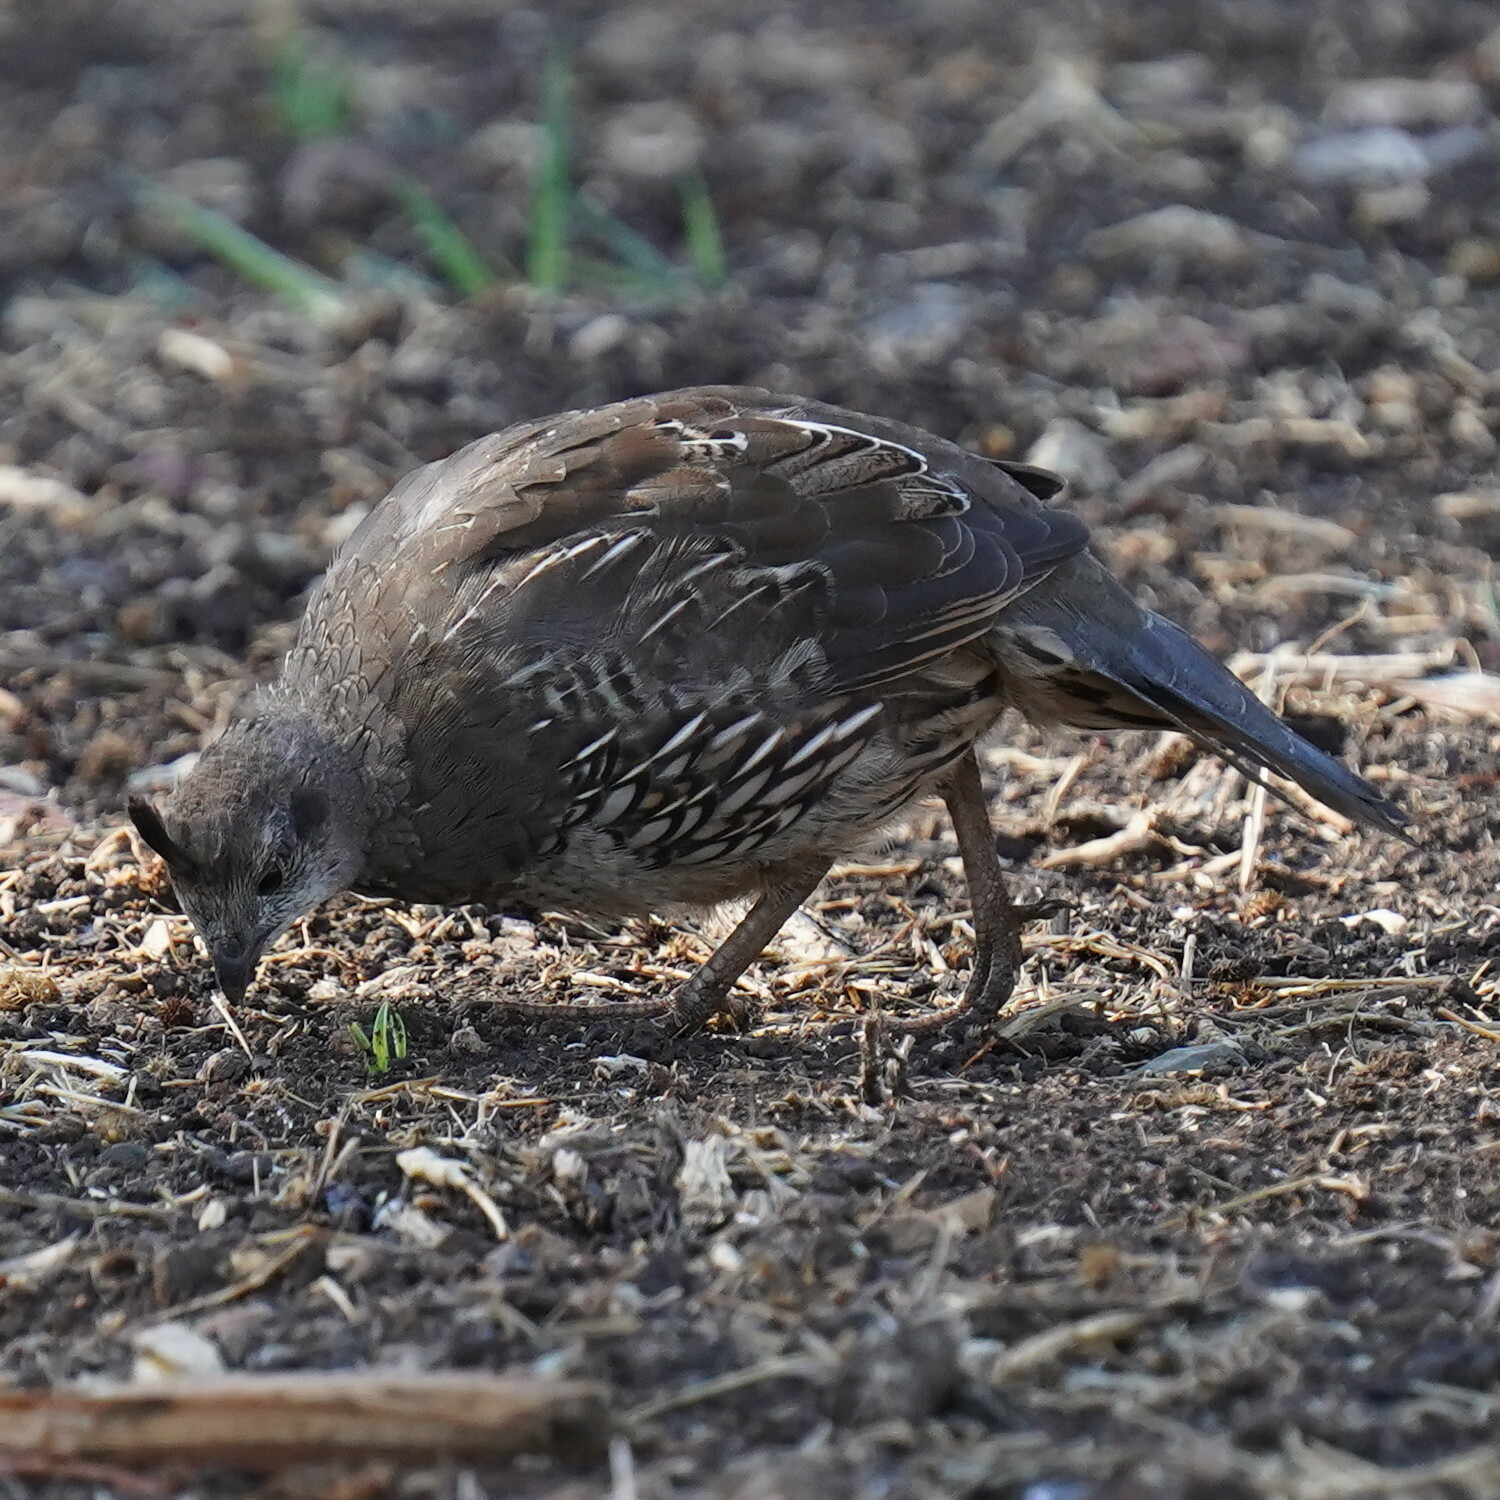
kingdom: Animalia
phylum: Chordata
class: Aves
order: Galliformes
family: Odontophoridae
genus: Callipepla
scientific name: Callipepla californica
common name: California quail
